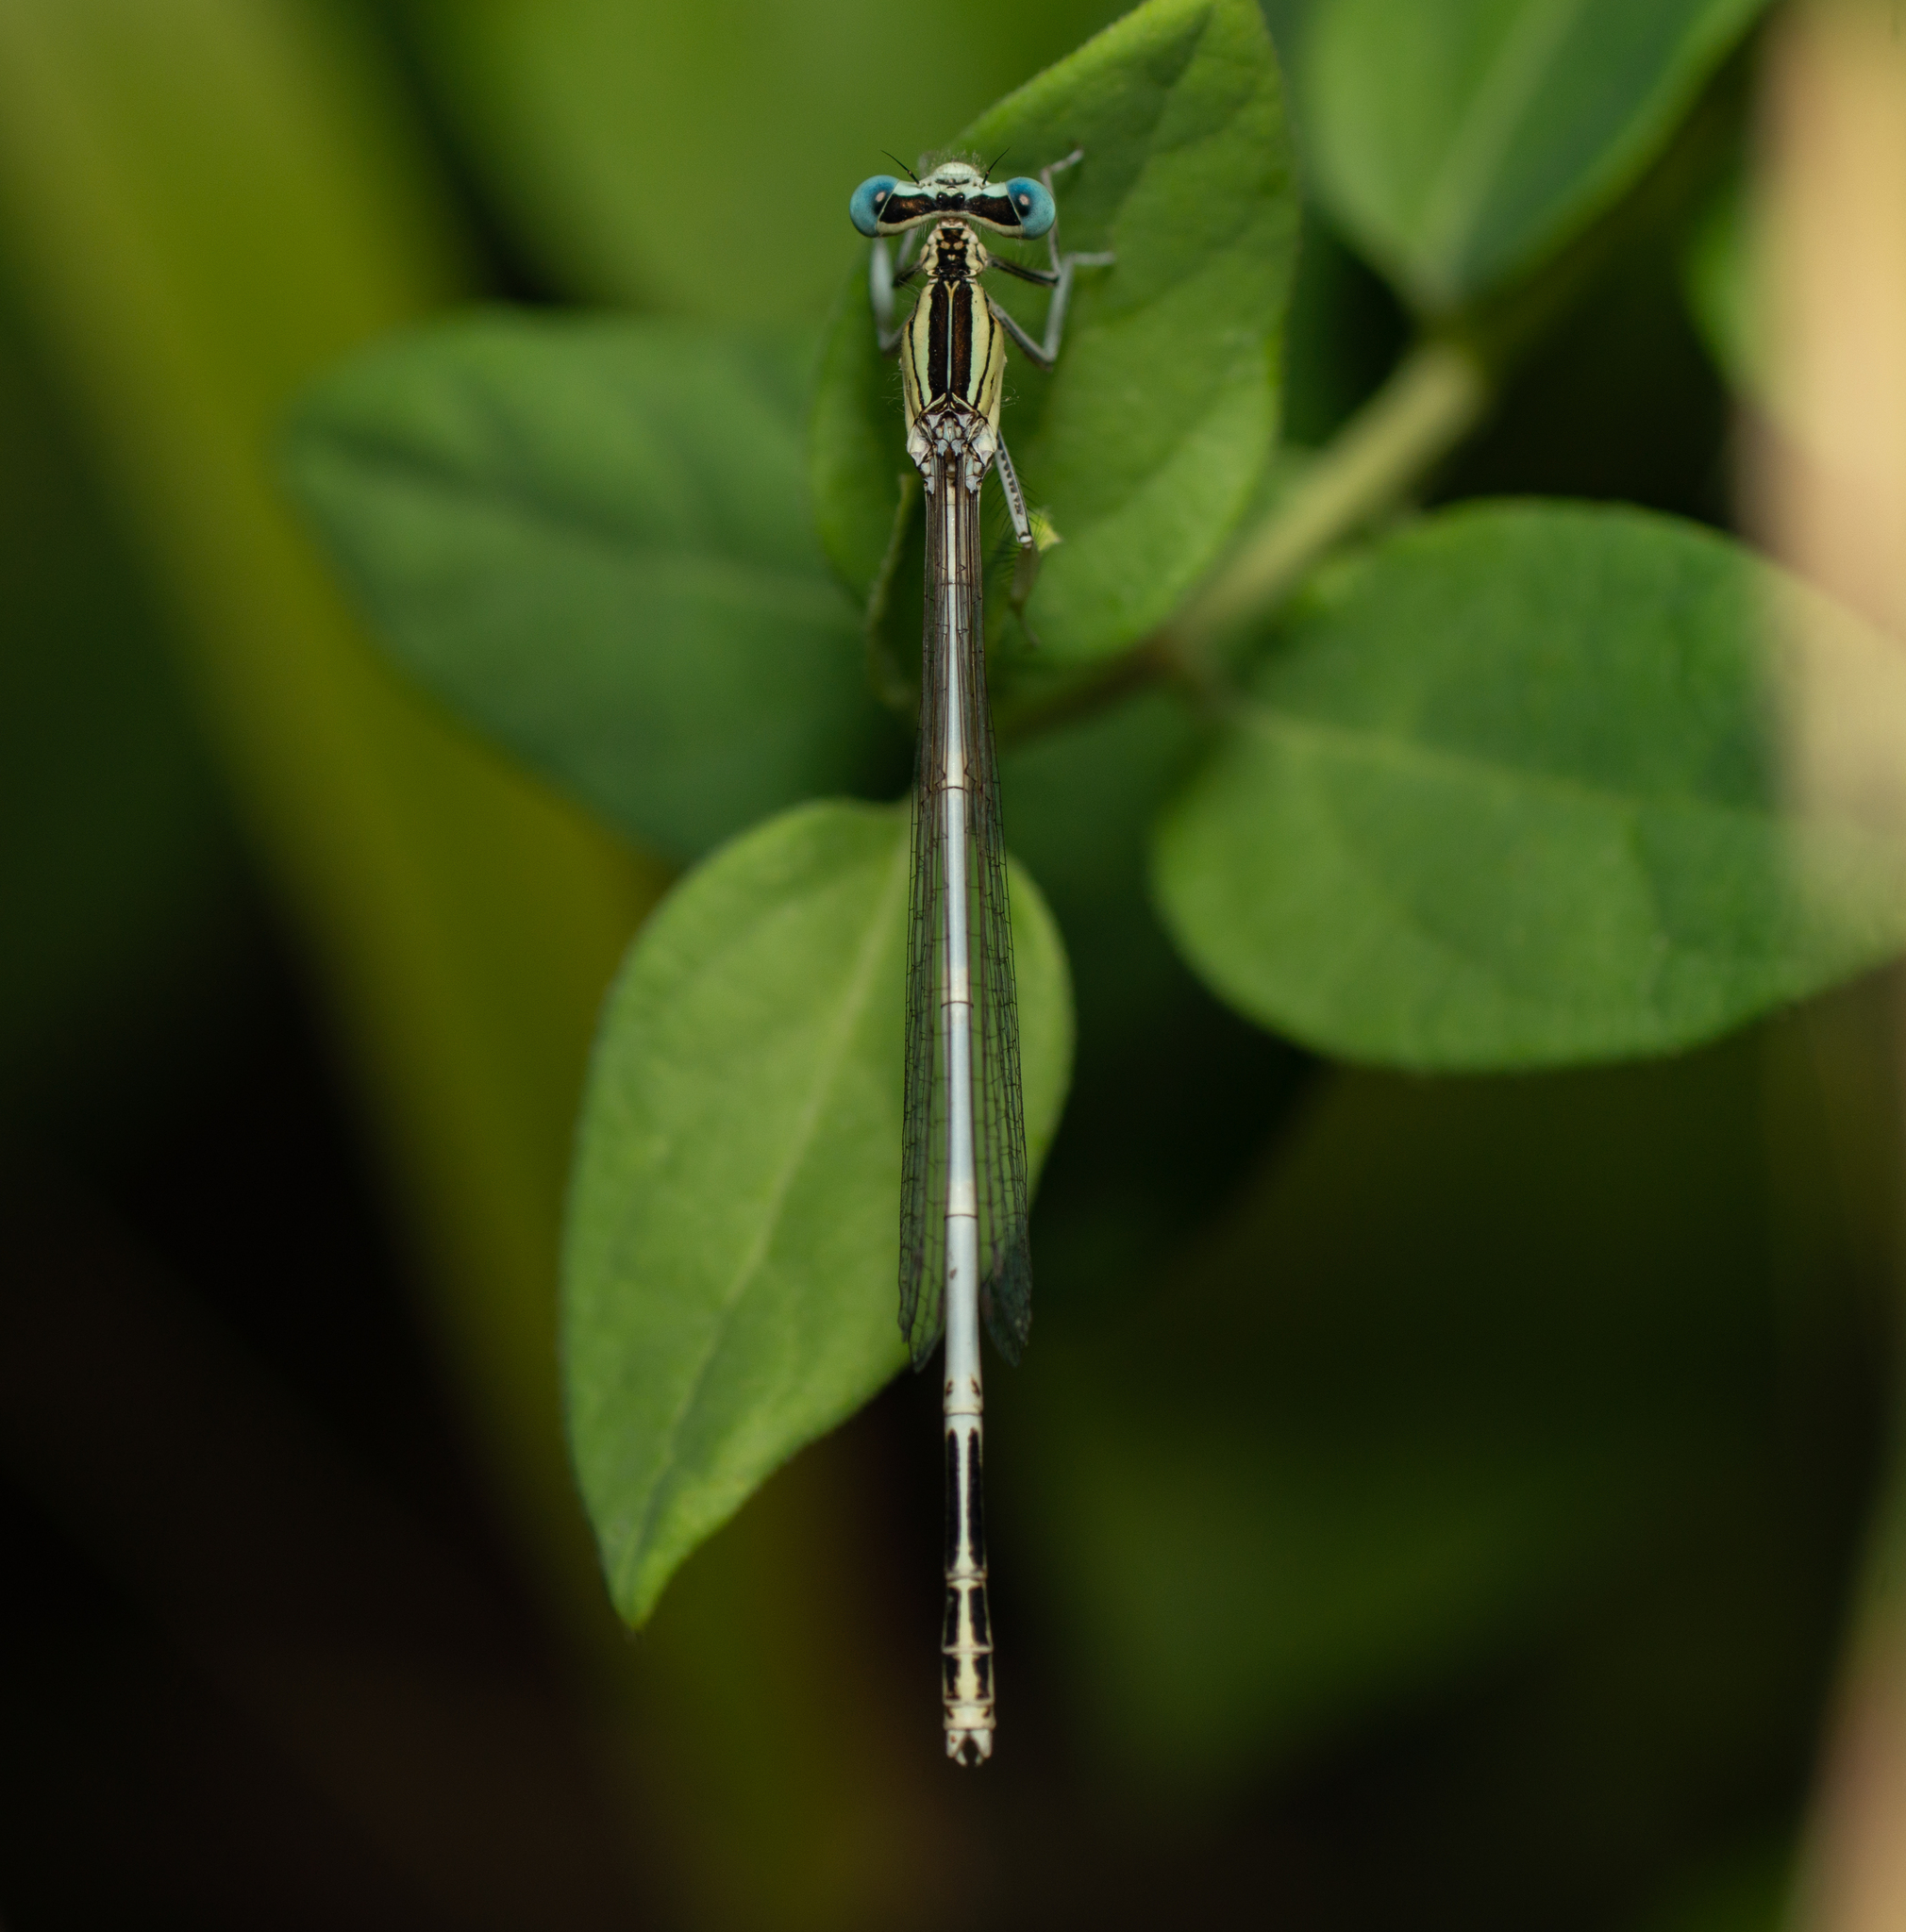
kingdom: Animalia
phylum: Arthropoda
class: Insecta
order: Odonata
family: Platycnemididae
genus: Platycnemis
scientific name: Platycnemis latipes
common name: White featherleg
